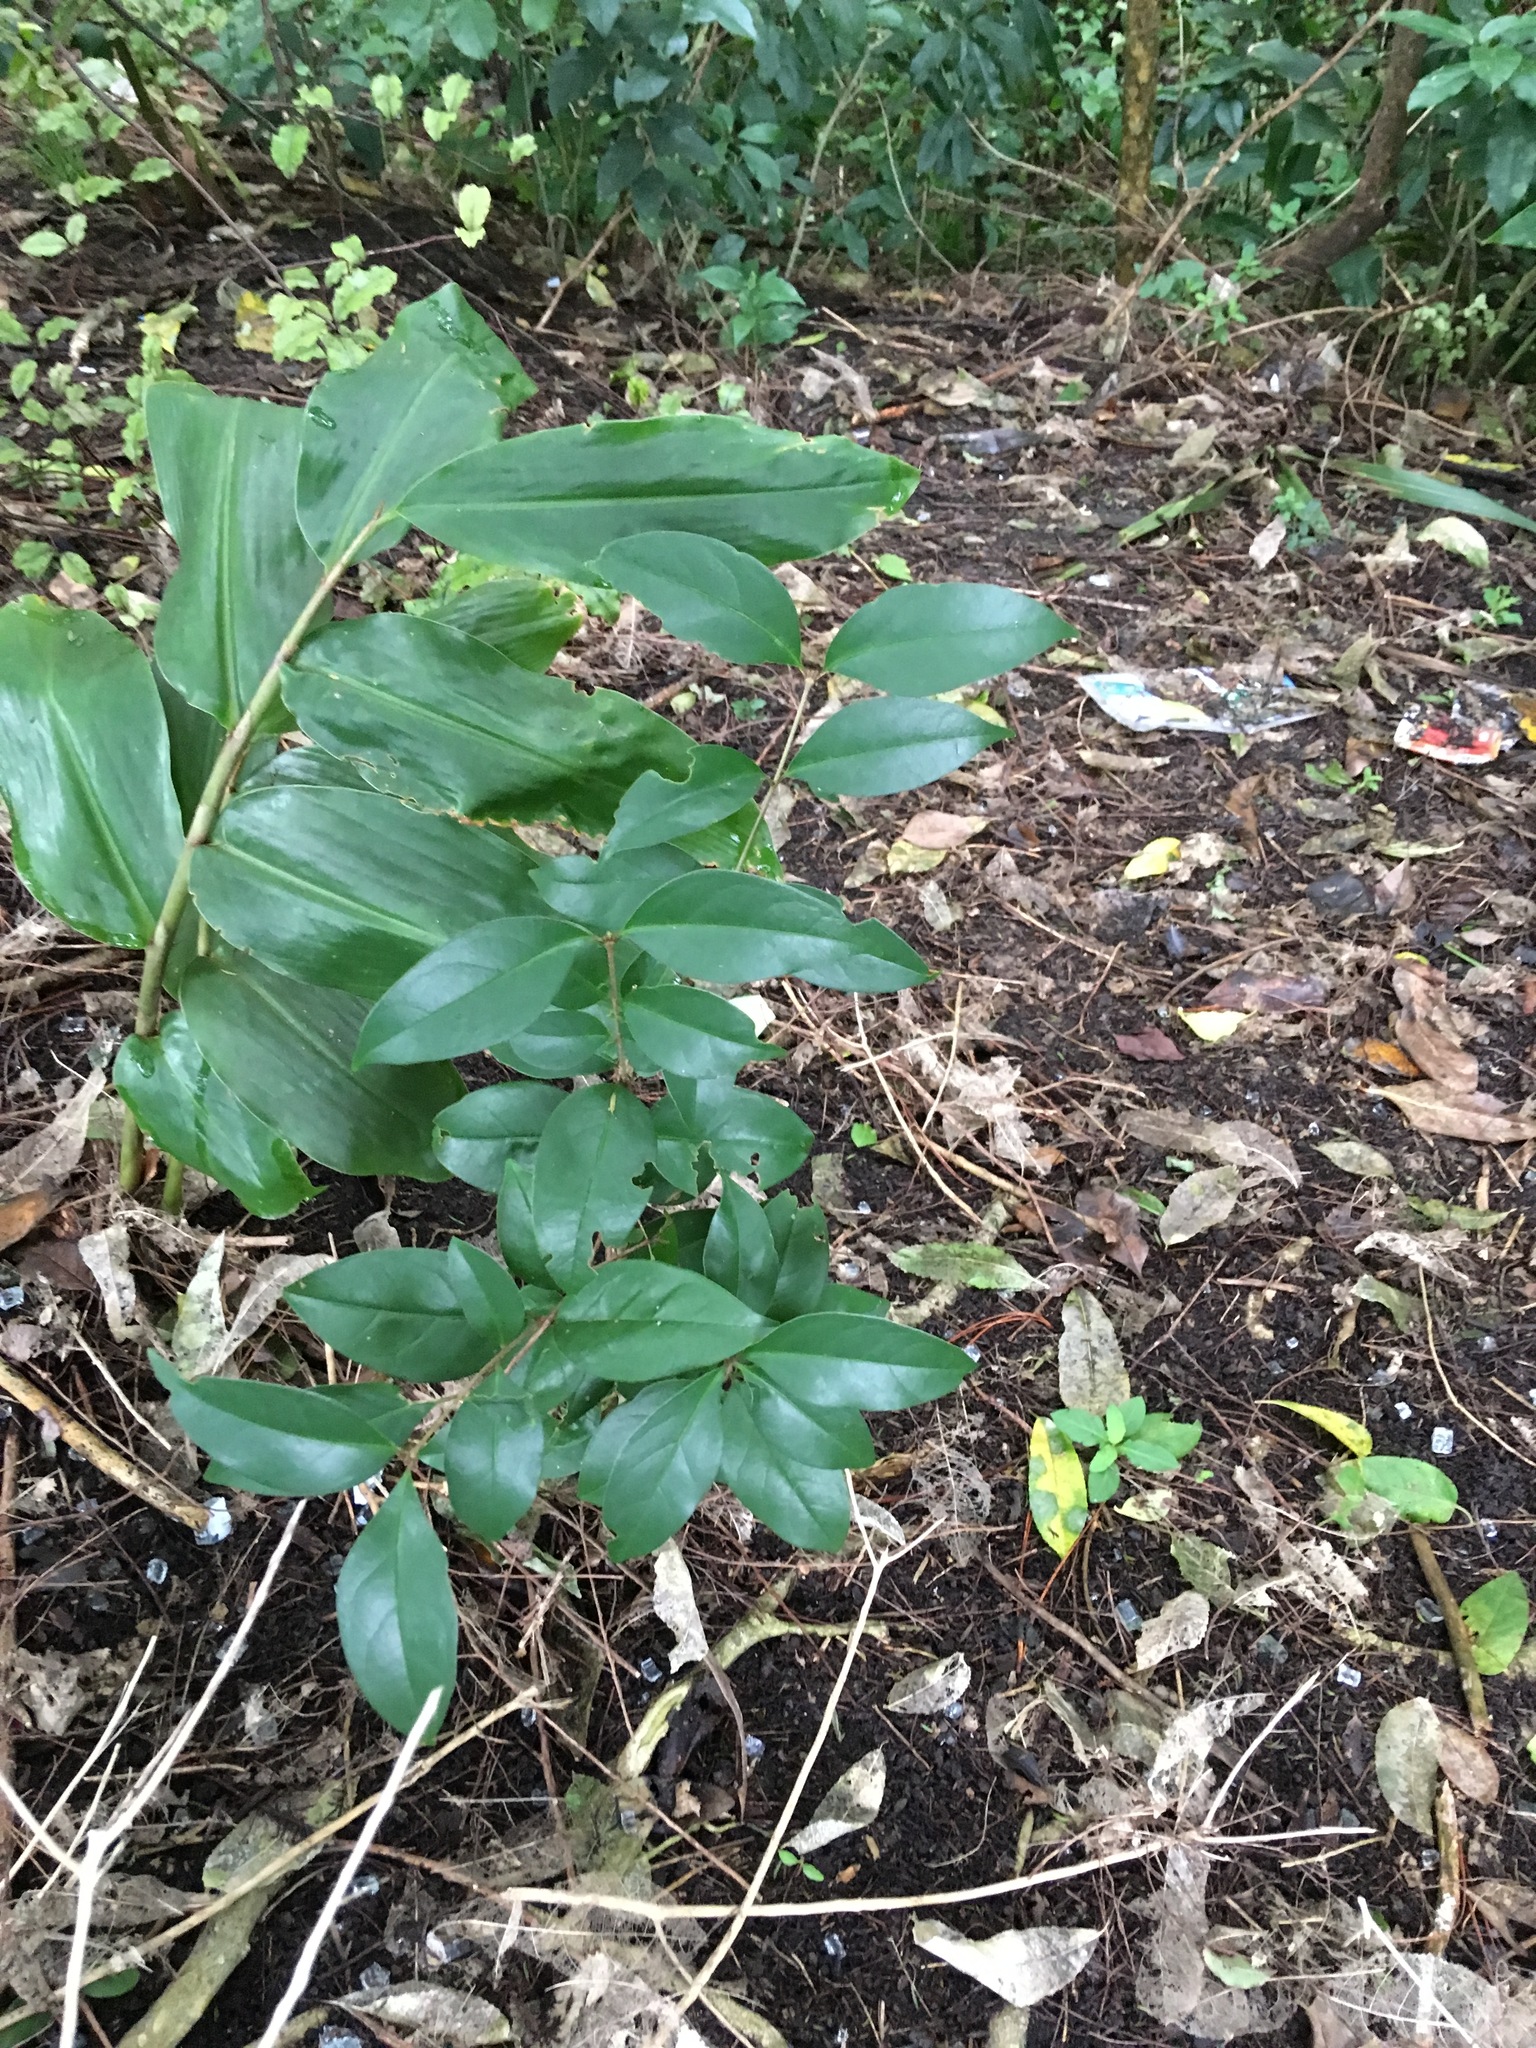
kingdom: Plantae
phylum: Tracheophyta
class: Magnoliopsida
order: Lamiales
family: Oleaceae
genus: Ligustrum
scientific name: Ligustrum lucidum
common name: Glossy privet
